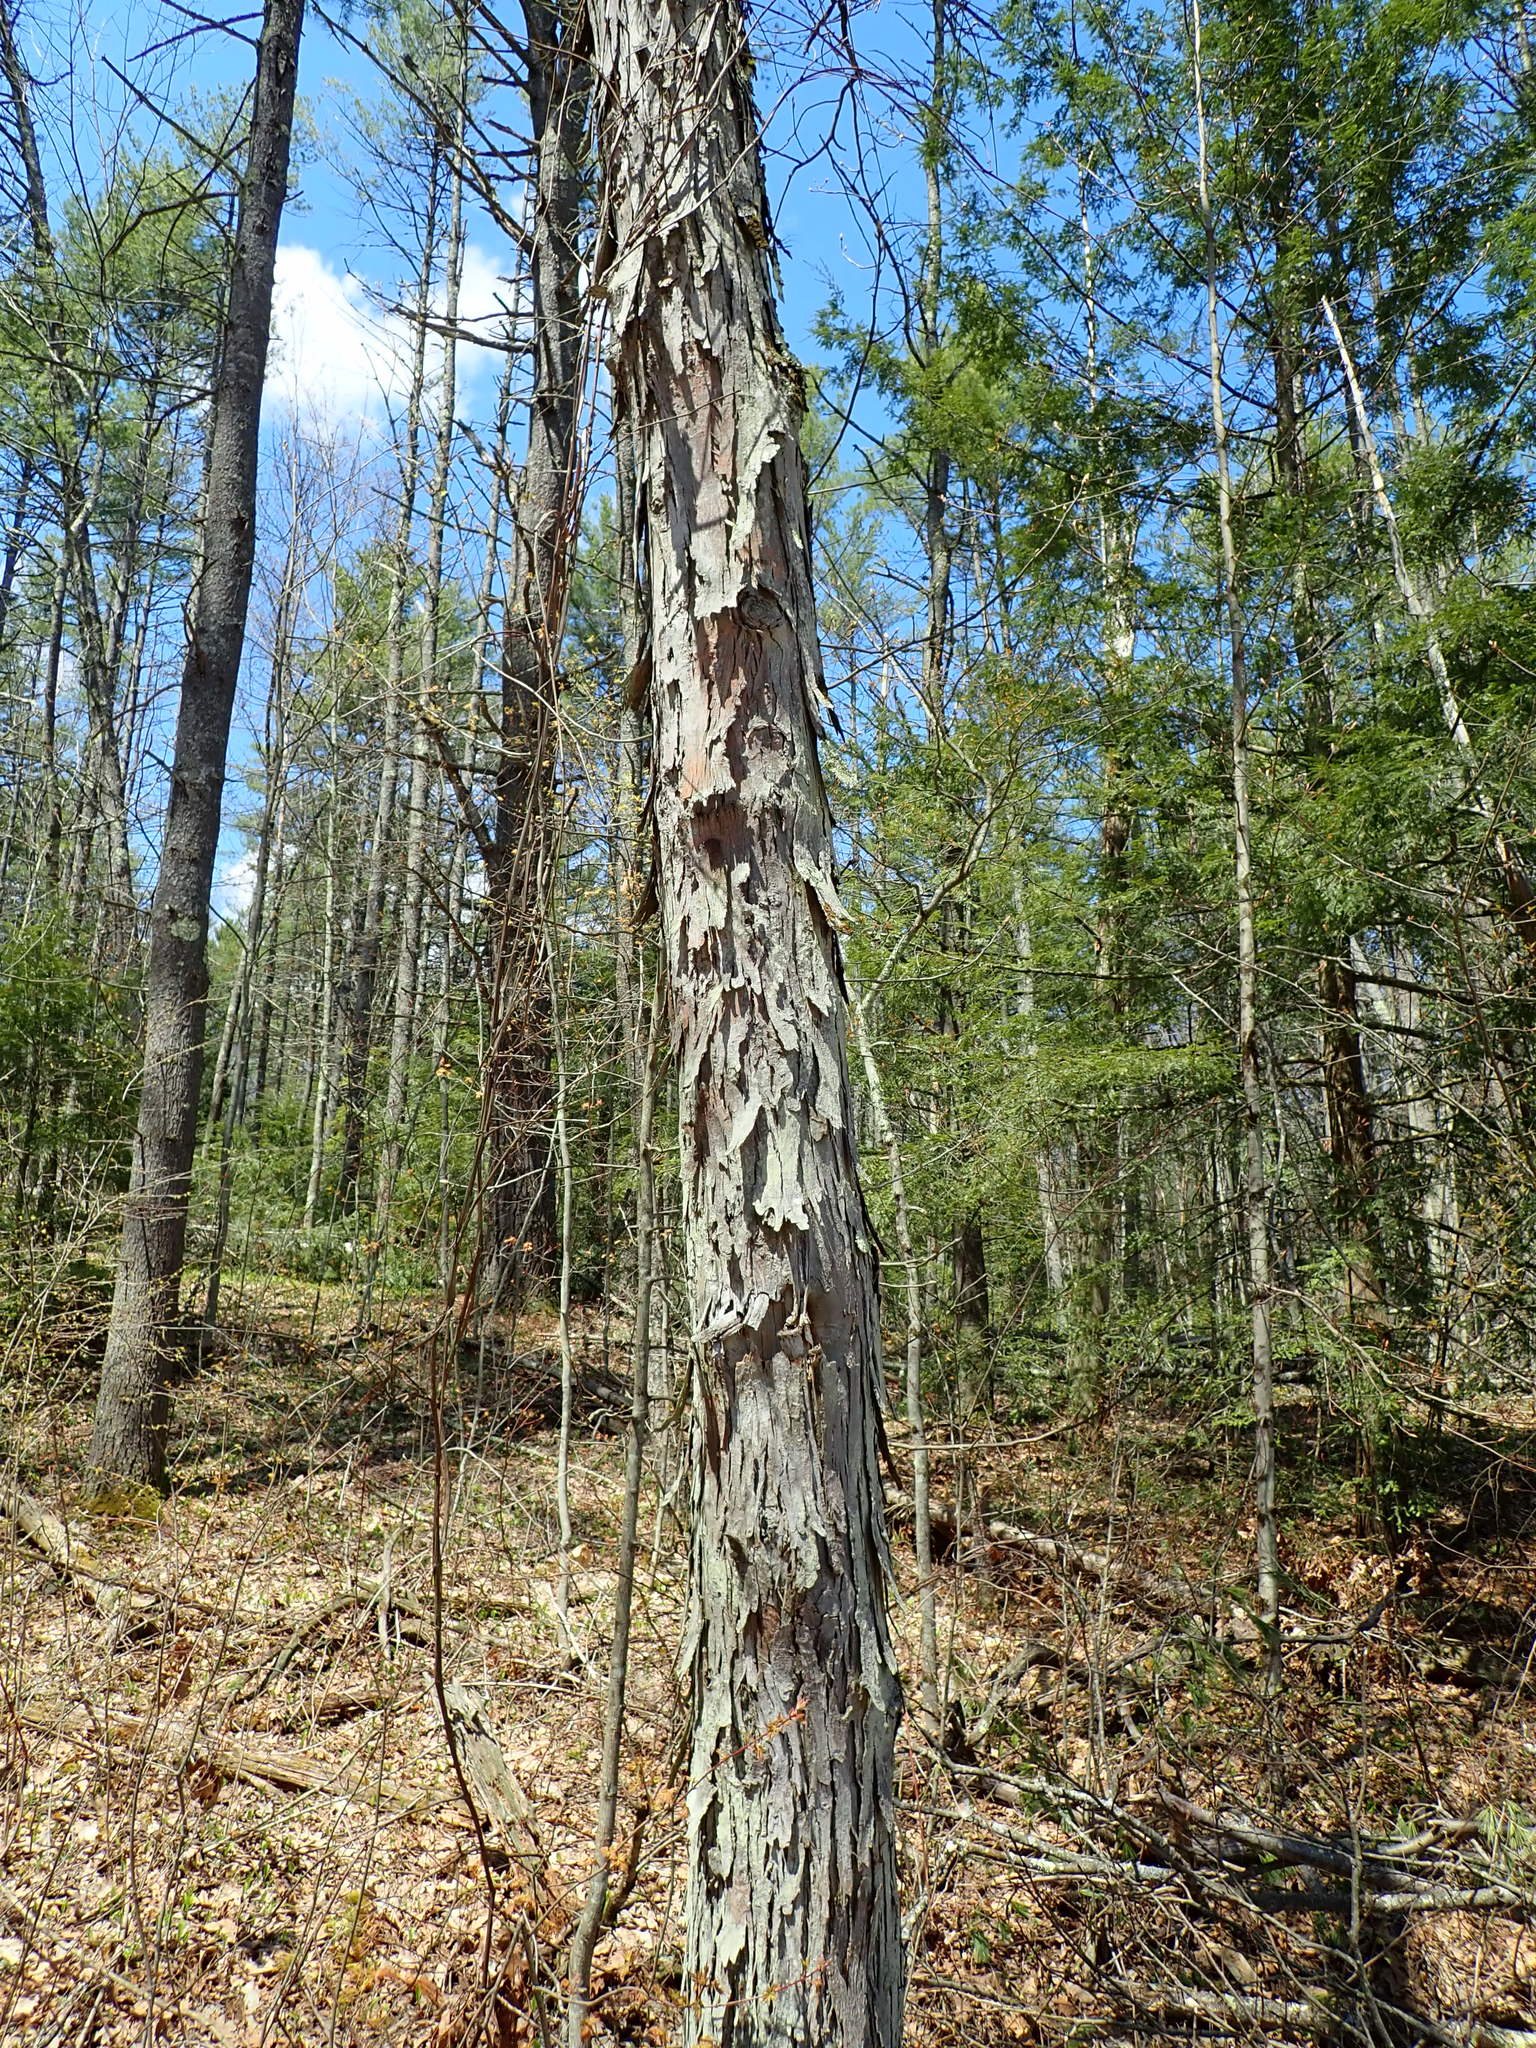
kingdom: Plantae
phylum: Tracheophyta
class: Magnoliopsida
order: Fagales
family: Juglandaceae
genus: Carya
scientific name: Carya ovata
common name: Shagbark hickory
